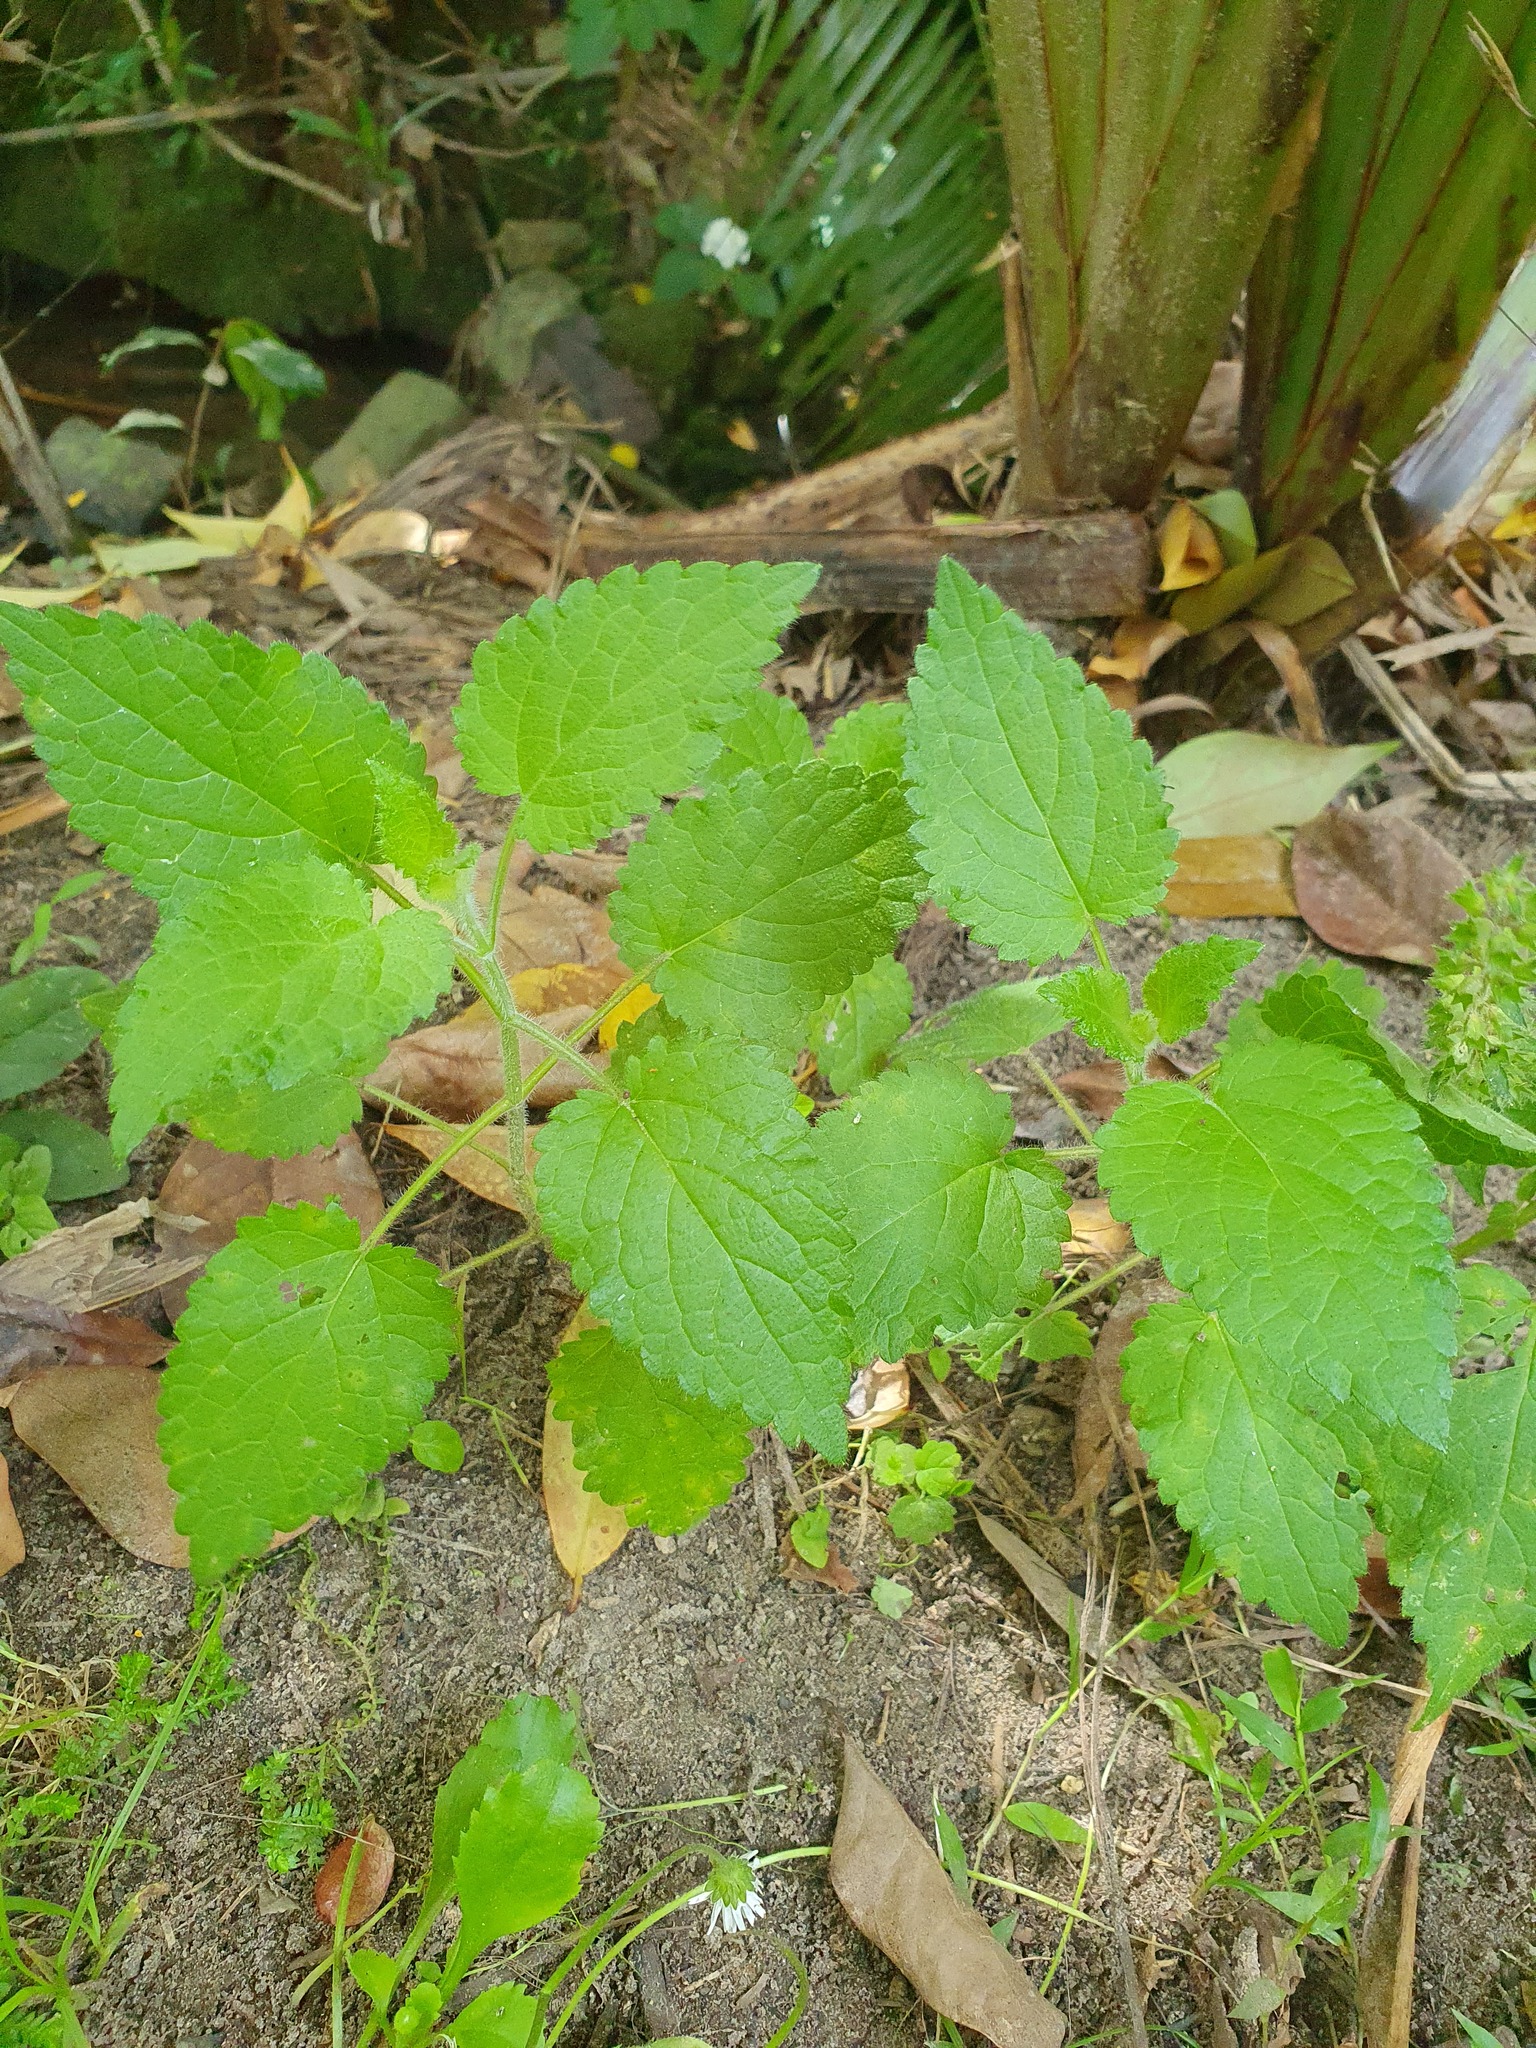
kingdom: Plantae
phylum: Tracheophyta
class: Magnoliopsida
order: Lamiales
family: Lamiaceae
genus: Stachys
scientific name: Stachys sylvatica
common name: Hedge woundwort
